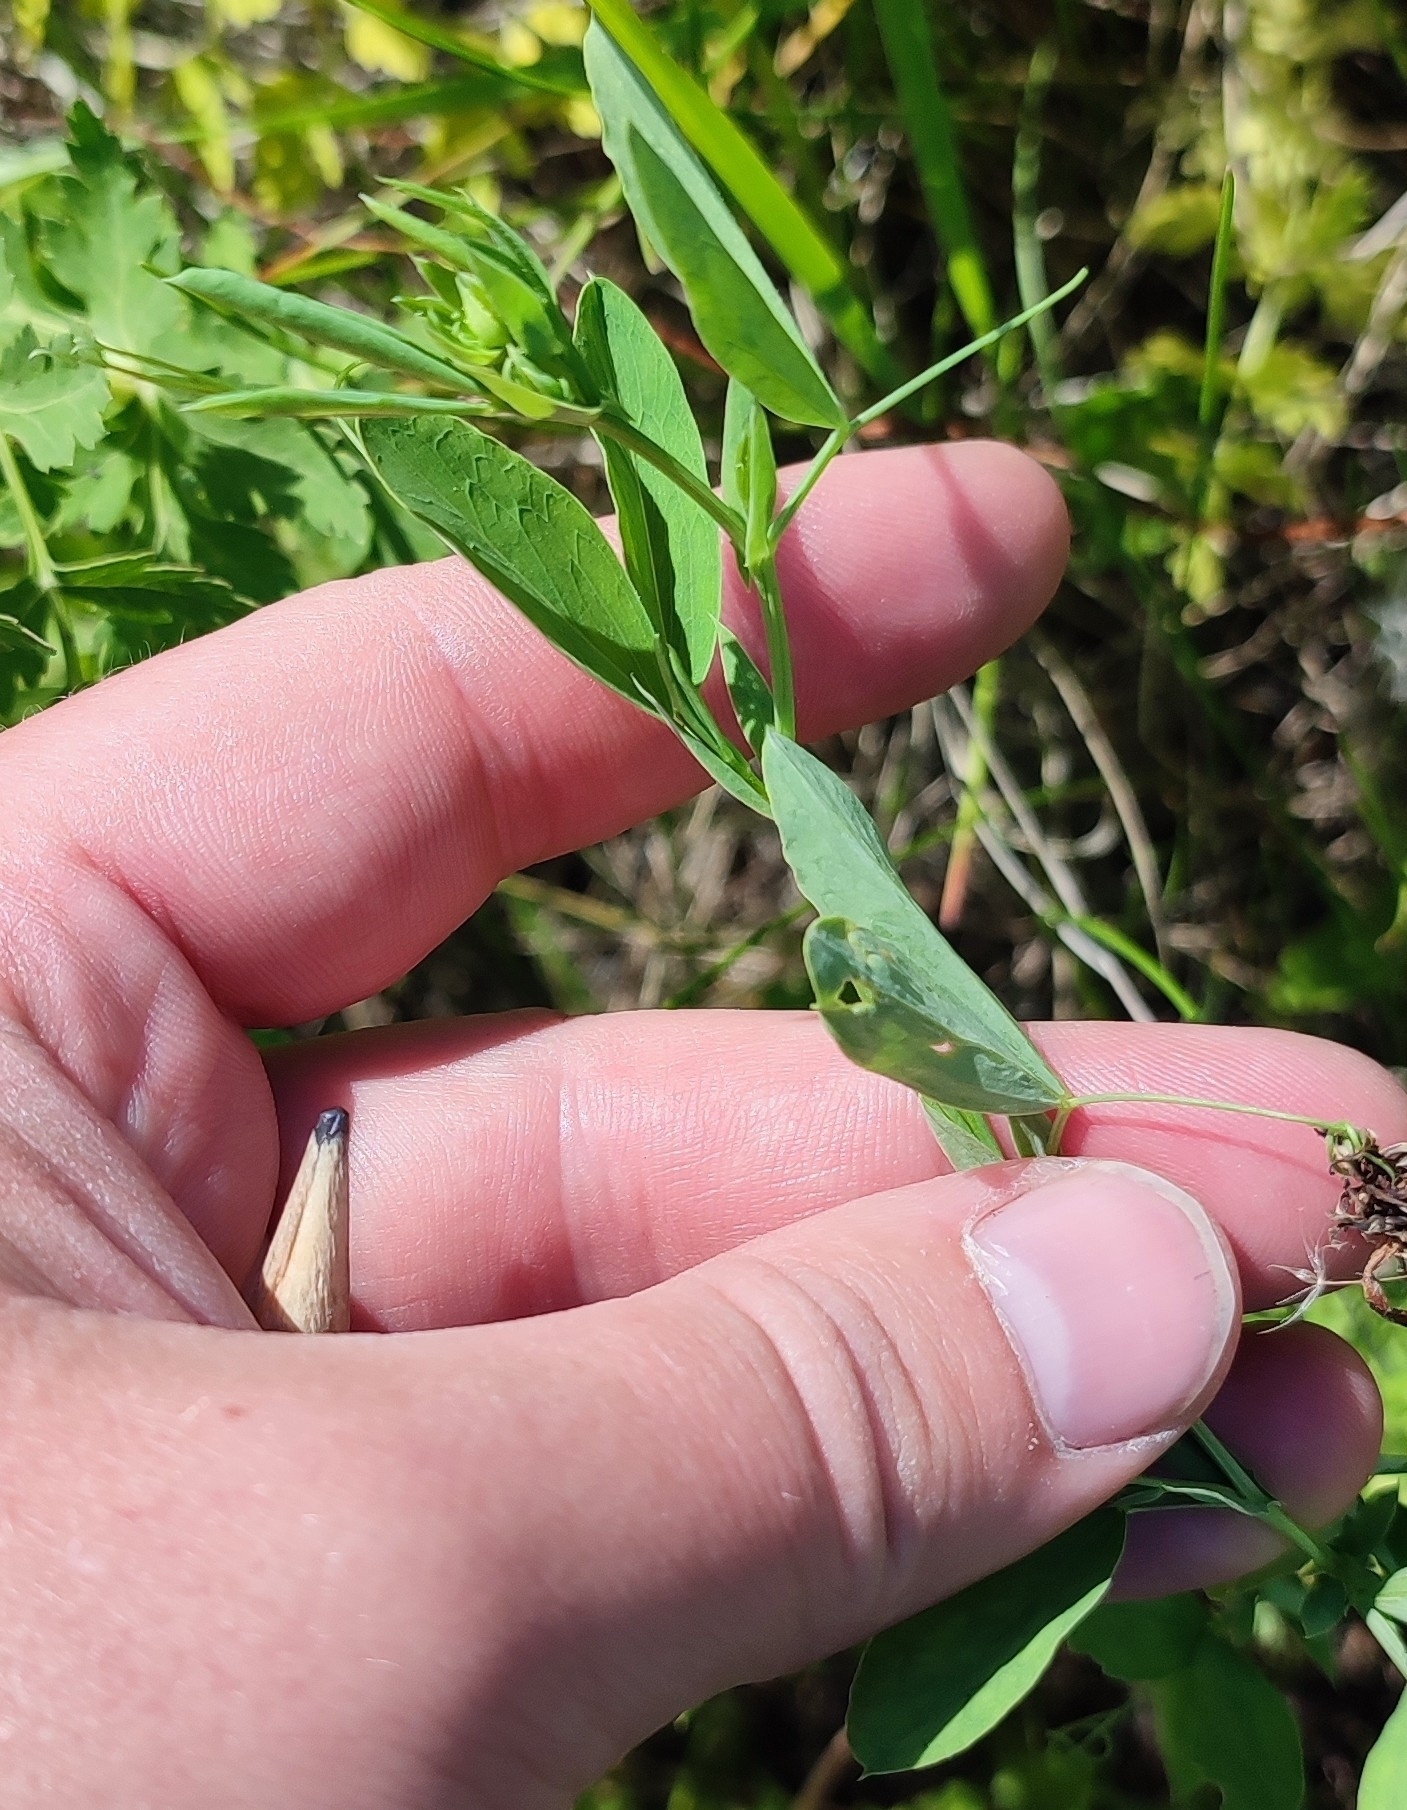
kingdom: Plantae
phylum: Tracheophyta
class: Magnoliopsida
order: Fabales
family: Fabaceae
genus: Lathyrus
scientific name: Lathyrus tuberosus
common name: Tuberous pea
